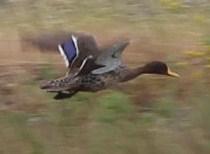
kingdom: Animalia
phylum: Chordata
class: Aves
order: Anseriformes
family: Anatidae
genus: Anas
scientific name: Anas undulata
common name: Yellow-billed duck
